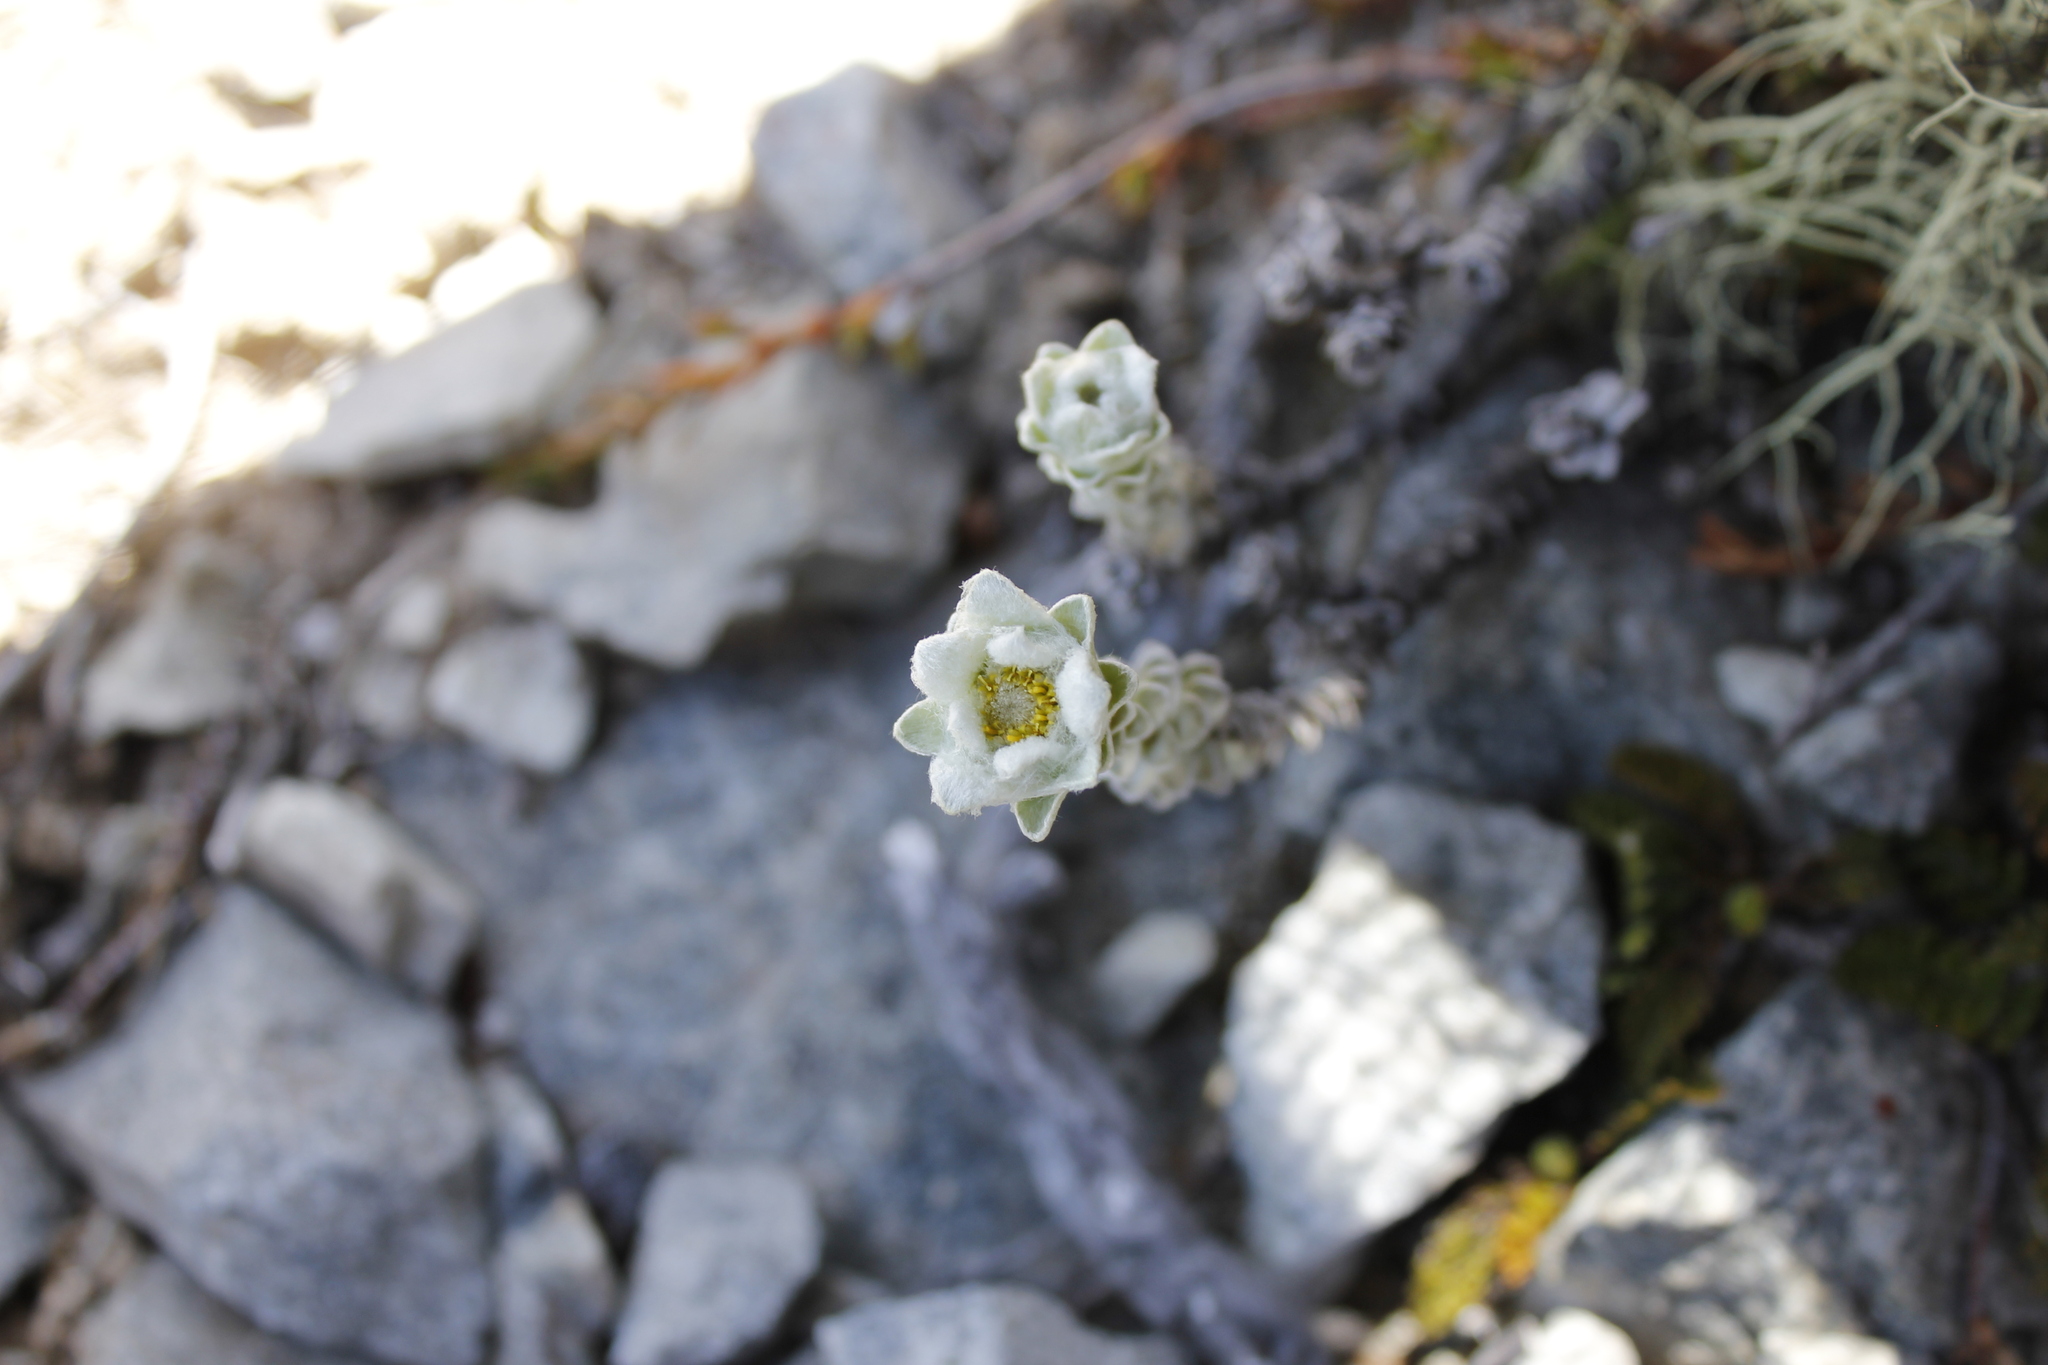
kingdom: Plantae
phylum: Tracheophyta
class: Magnoliopsida
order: Asterales
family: Asteraceae
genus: Leucogenes
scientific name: Leucogenes grandiceps
